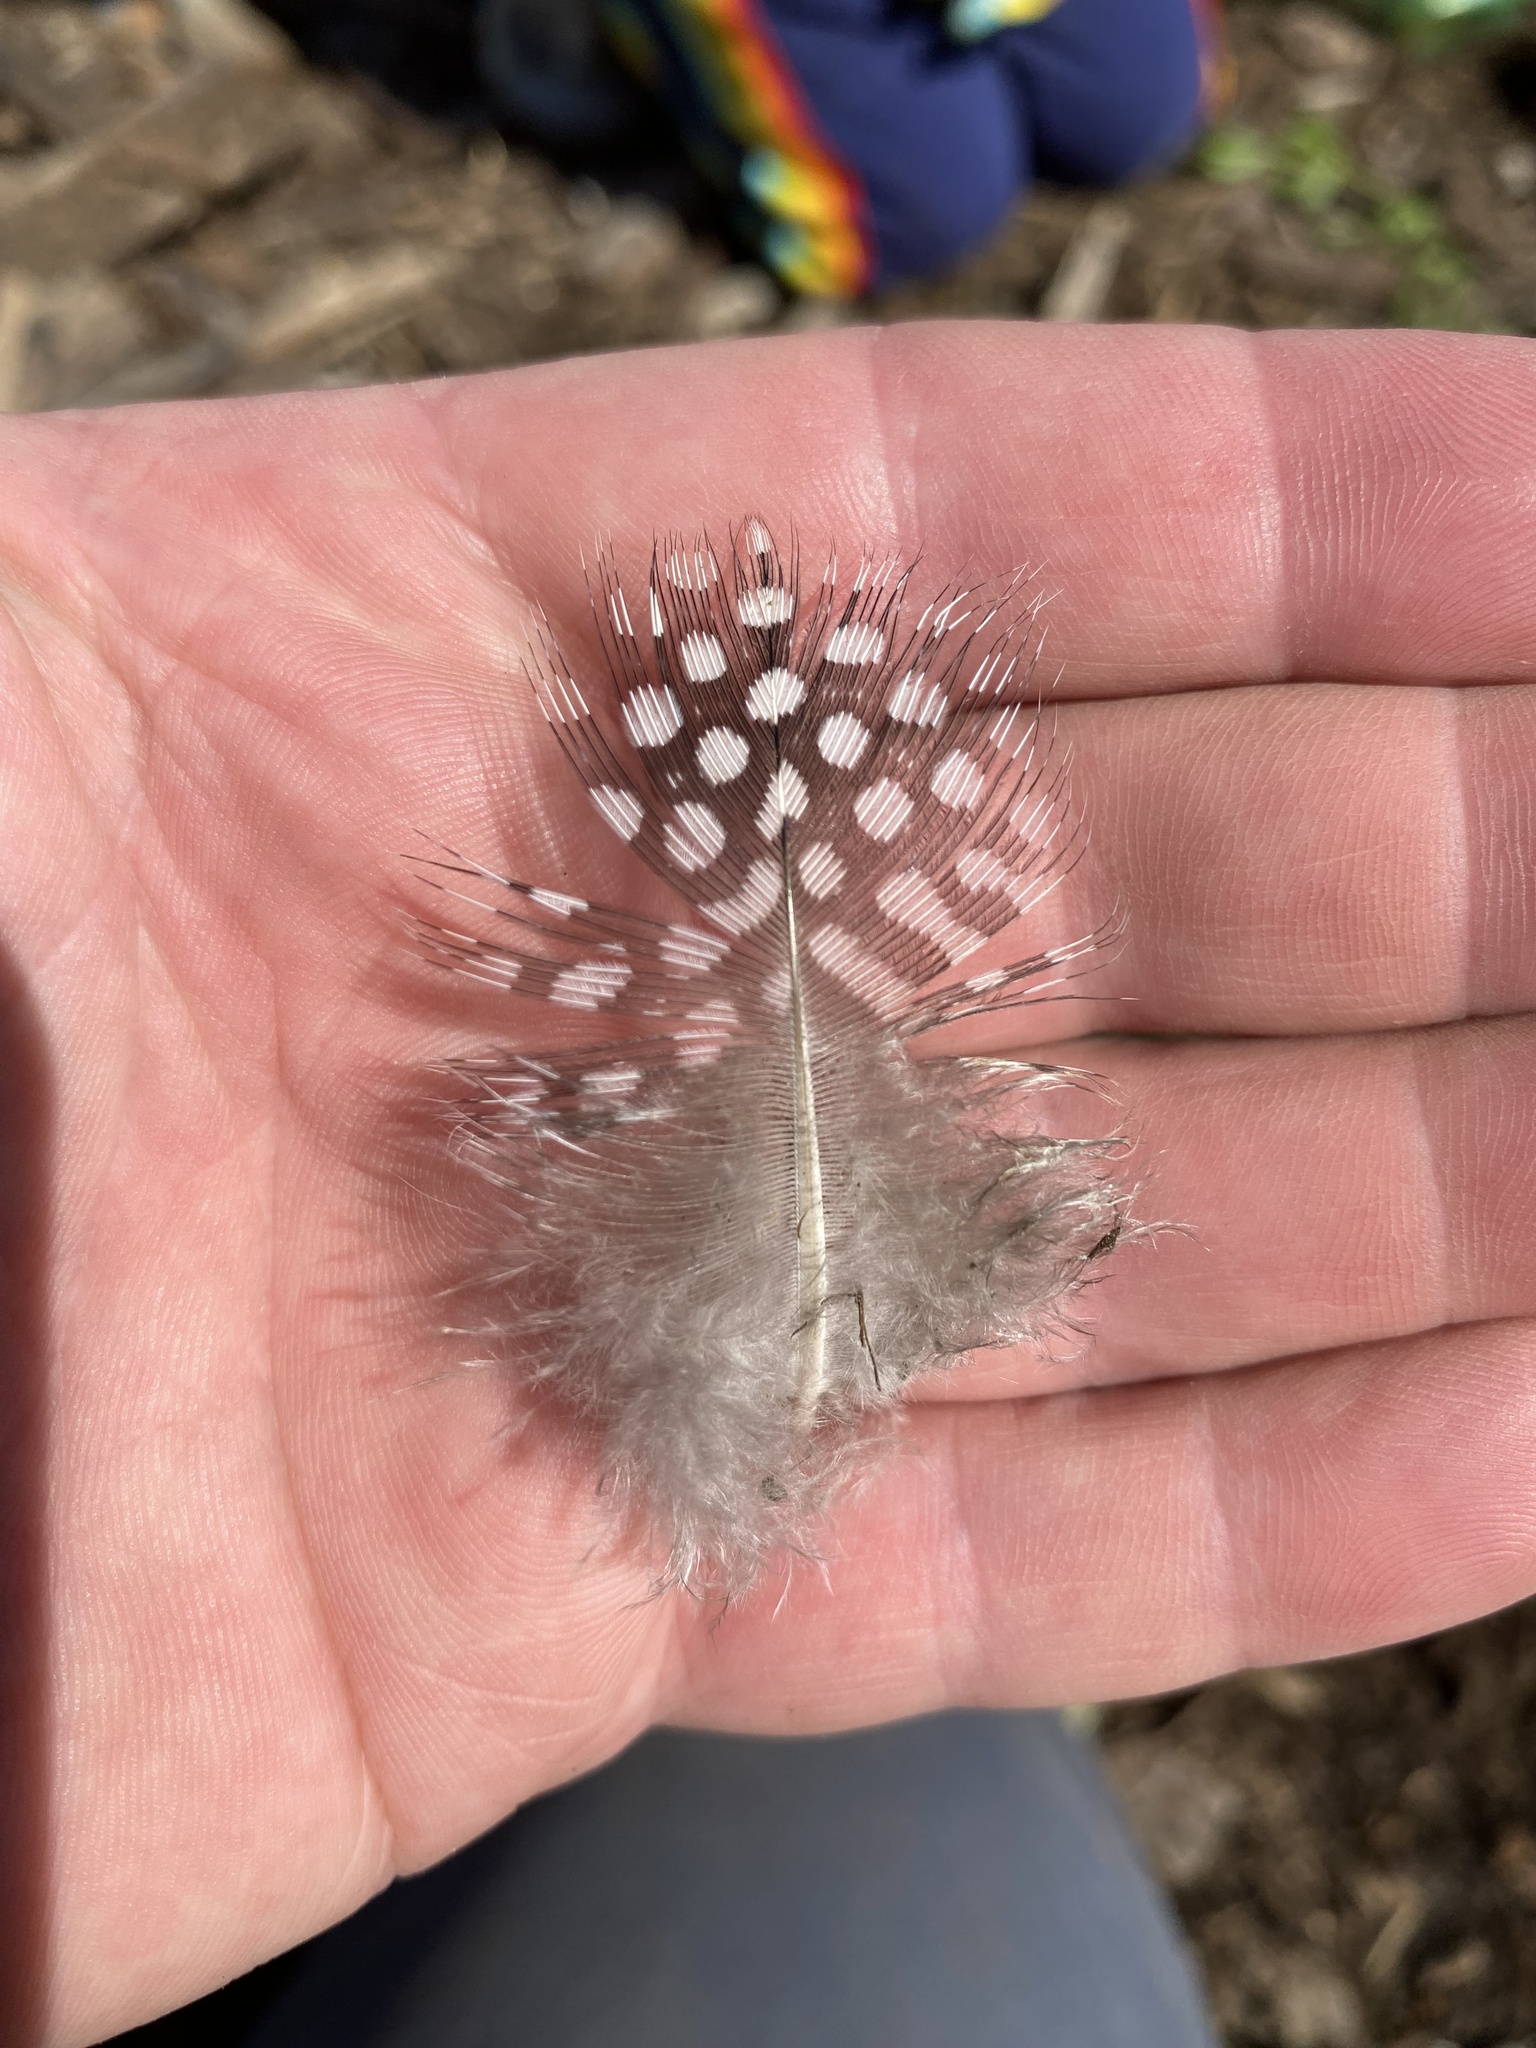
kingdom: Animalia
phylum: Chordata
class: Aves
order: Galliformes
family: Numididae
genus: Numida
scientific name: Numida meleagris
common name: Helmeted guineafowl
